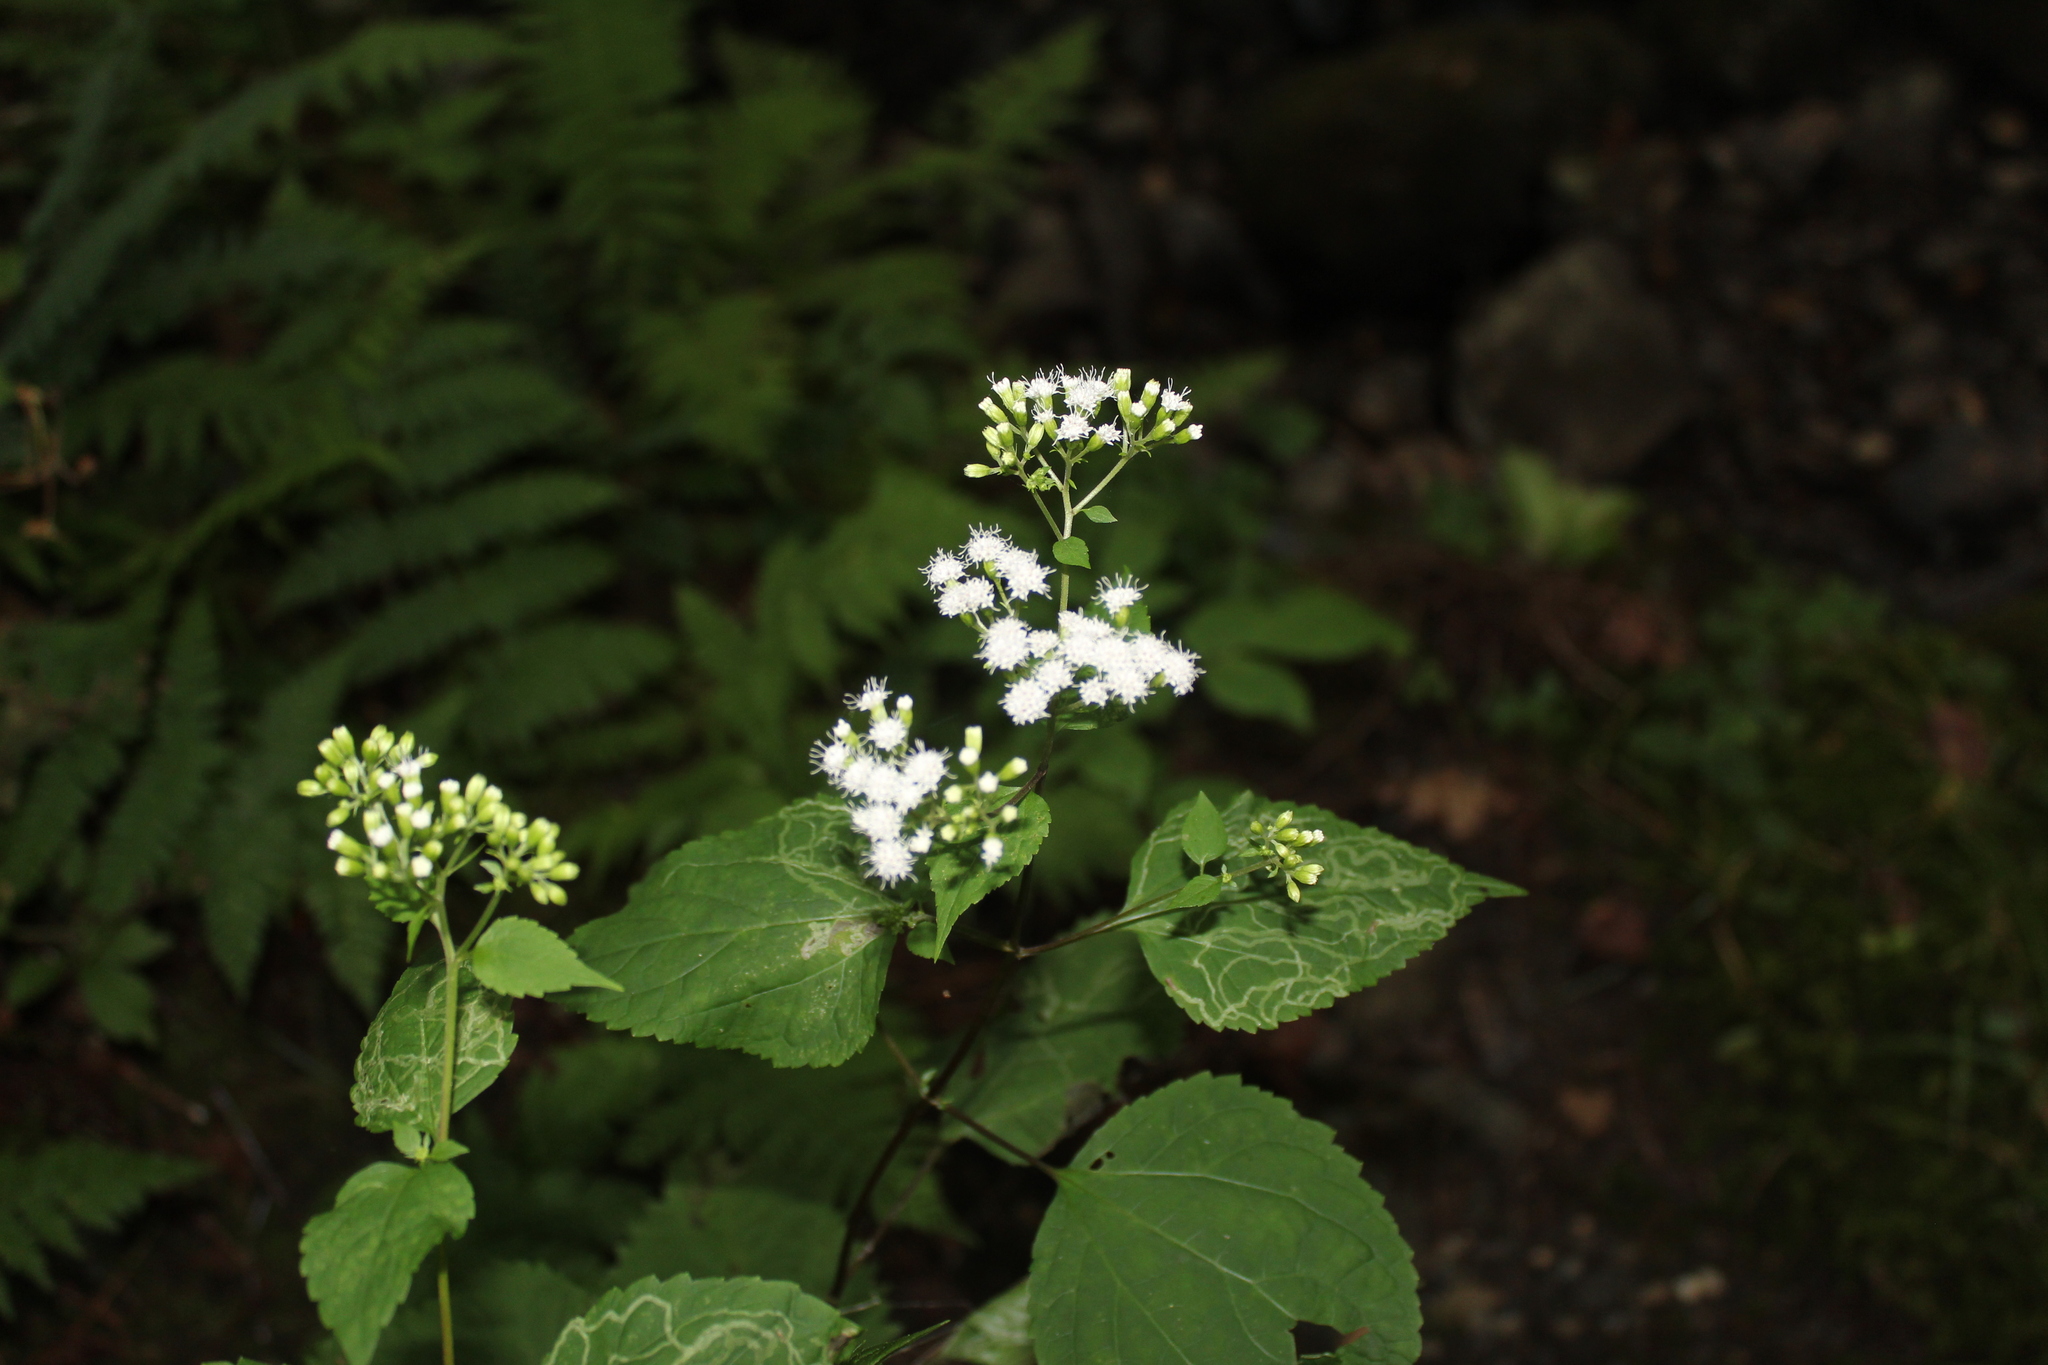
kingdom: Plantae
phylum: Tracheophyta
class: Magnoliopsida
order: Asterales
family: Asteraceae
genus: Ageratina
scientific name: Ageratina altissima
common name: White snakeroot
